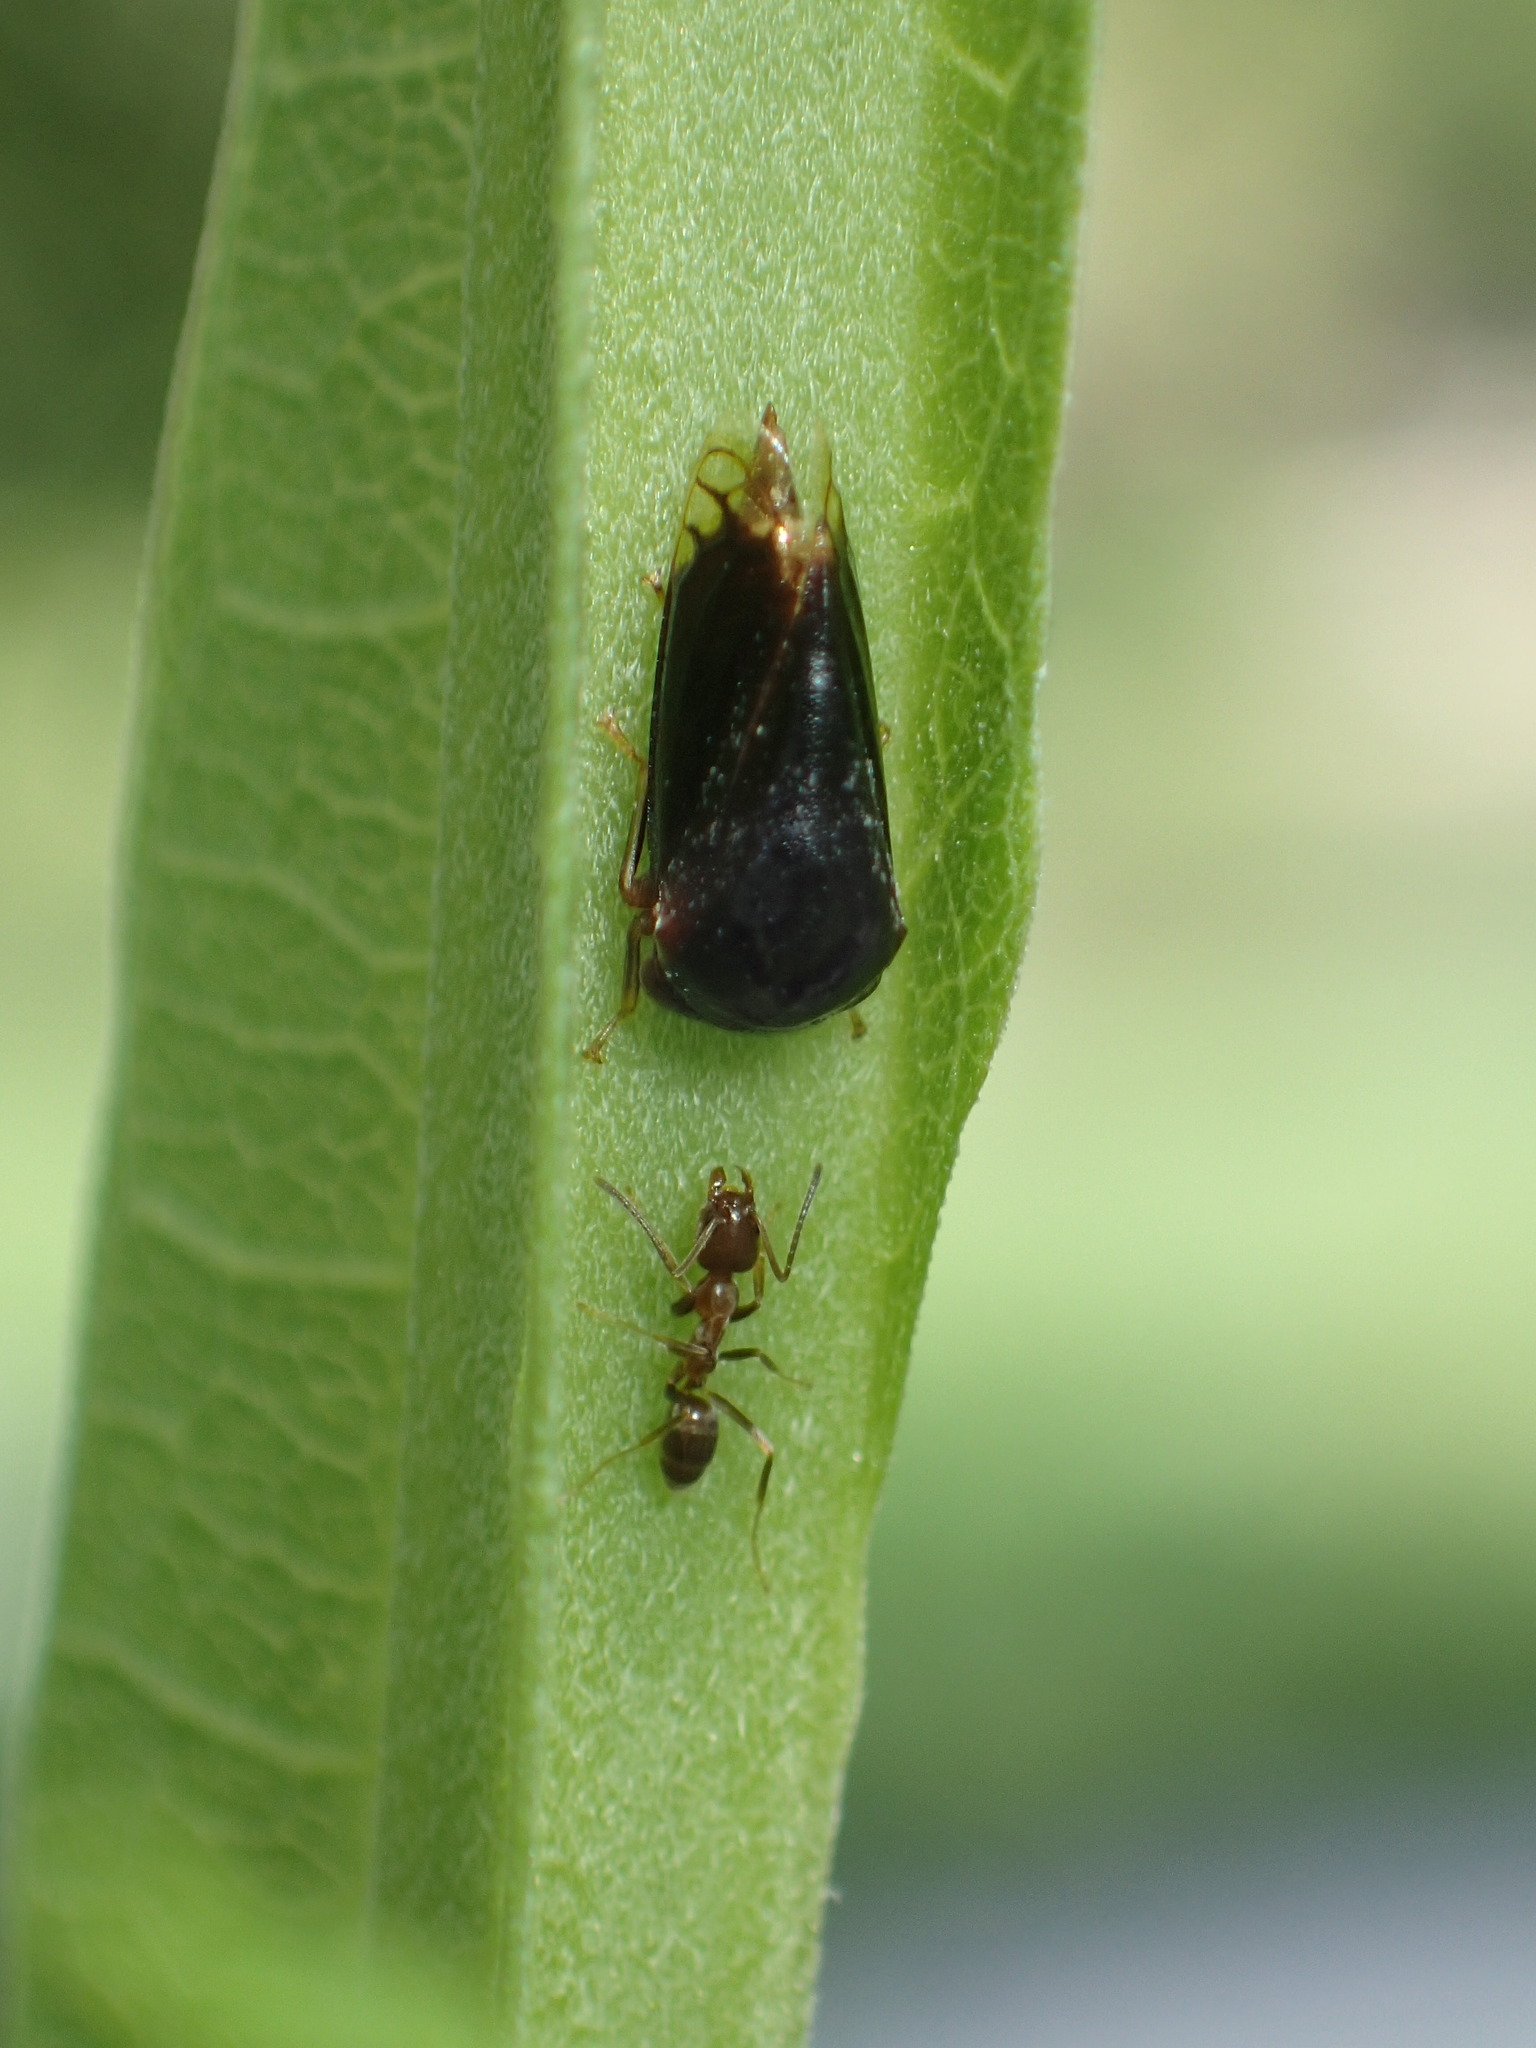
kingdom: Animalia
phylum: Arthropoda
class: Insecta
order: Hymenoptera
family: Formicidae
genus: Linepithema
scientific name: Linepithema humile
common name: Argentine ant
